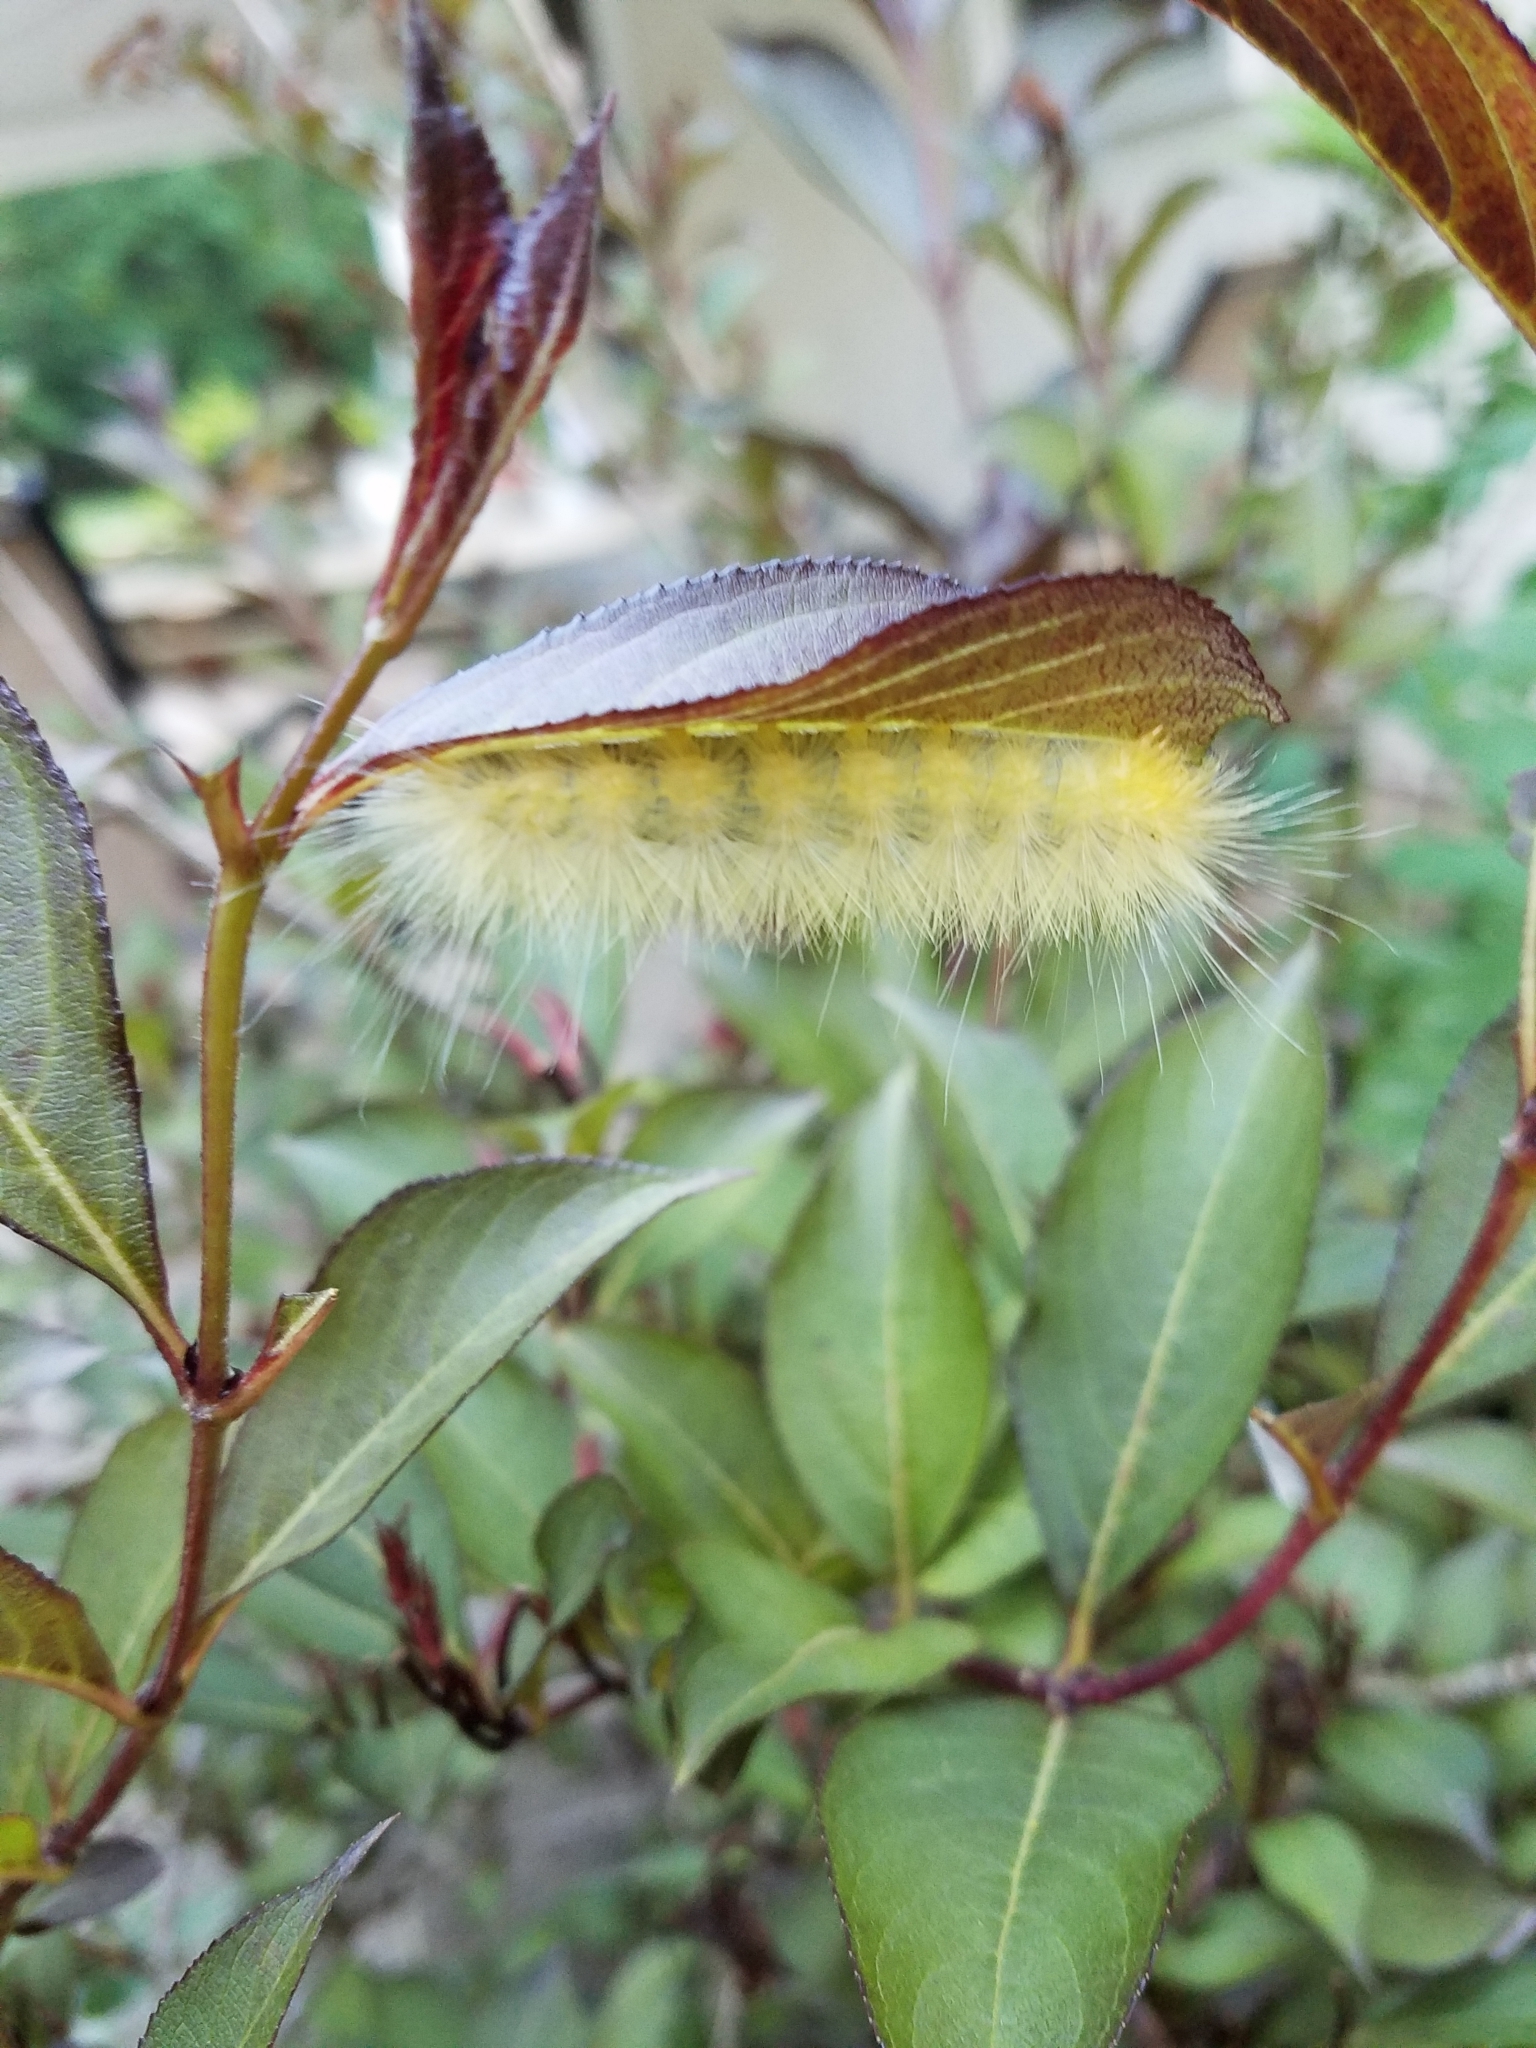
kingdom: Animalia
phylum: Arthropoda
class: Insecta
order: Lepidoptera
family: Erebidae
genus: Spilosoma
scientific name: Spilosoma virginica
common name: Virginia tiger moth
